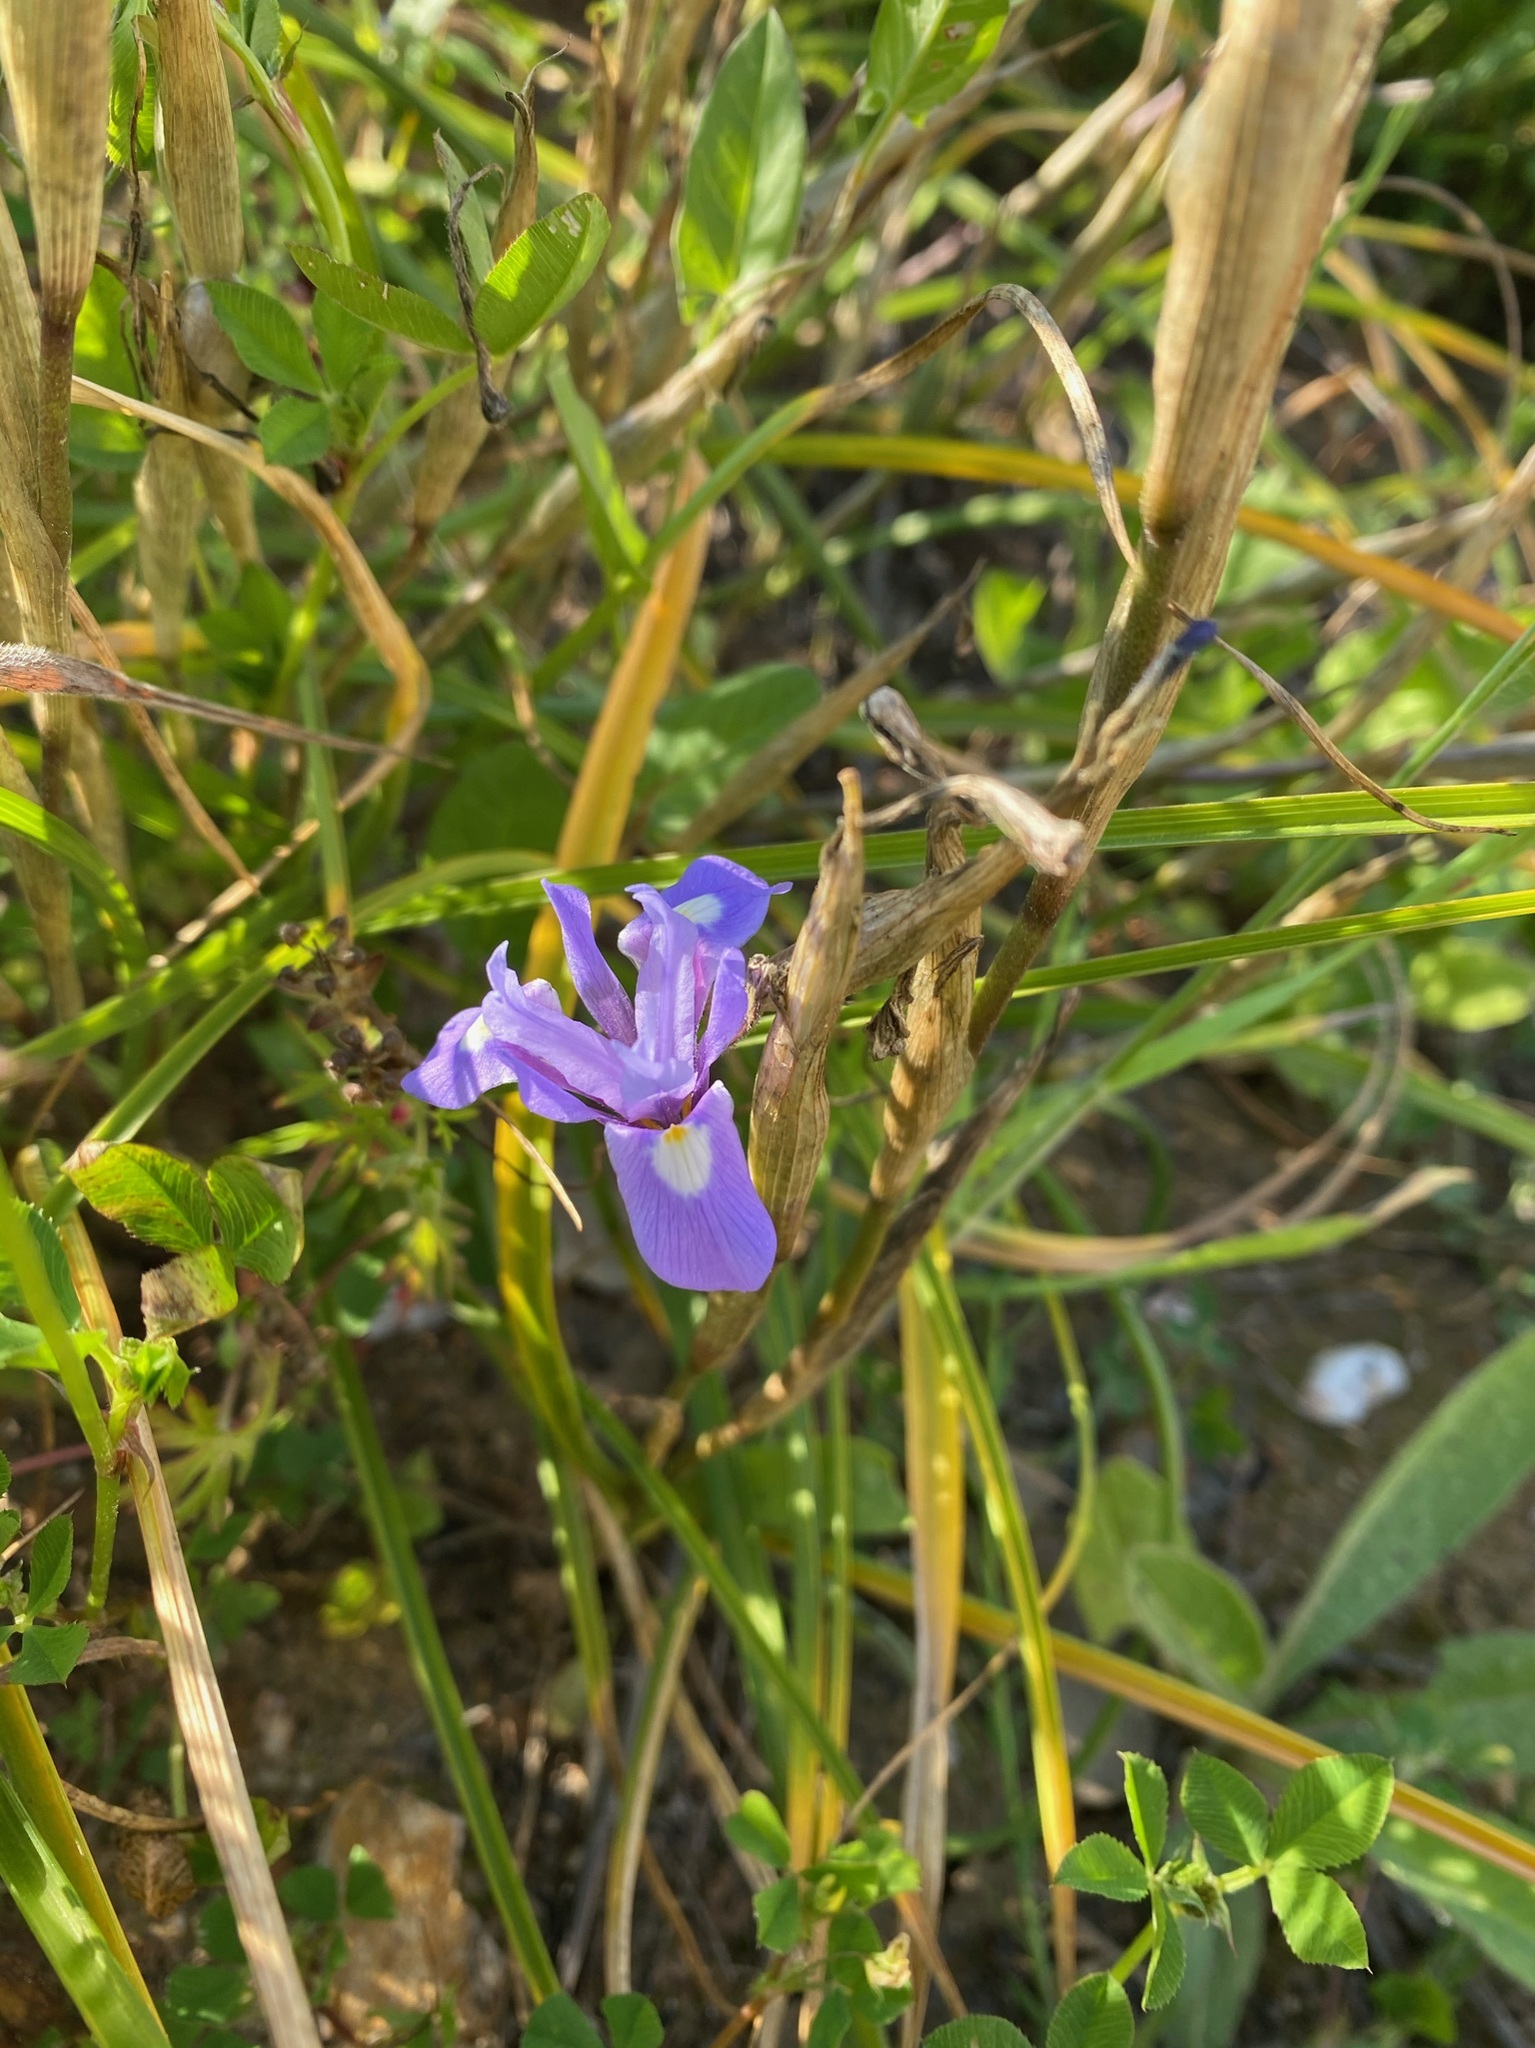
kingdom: Plantae
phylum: Tracheophyta
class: Liliopsida
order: Asparagales
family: Iridaceae
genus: Moraea
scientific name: Moraea sisyrinchium
